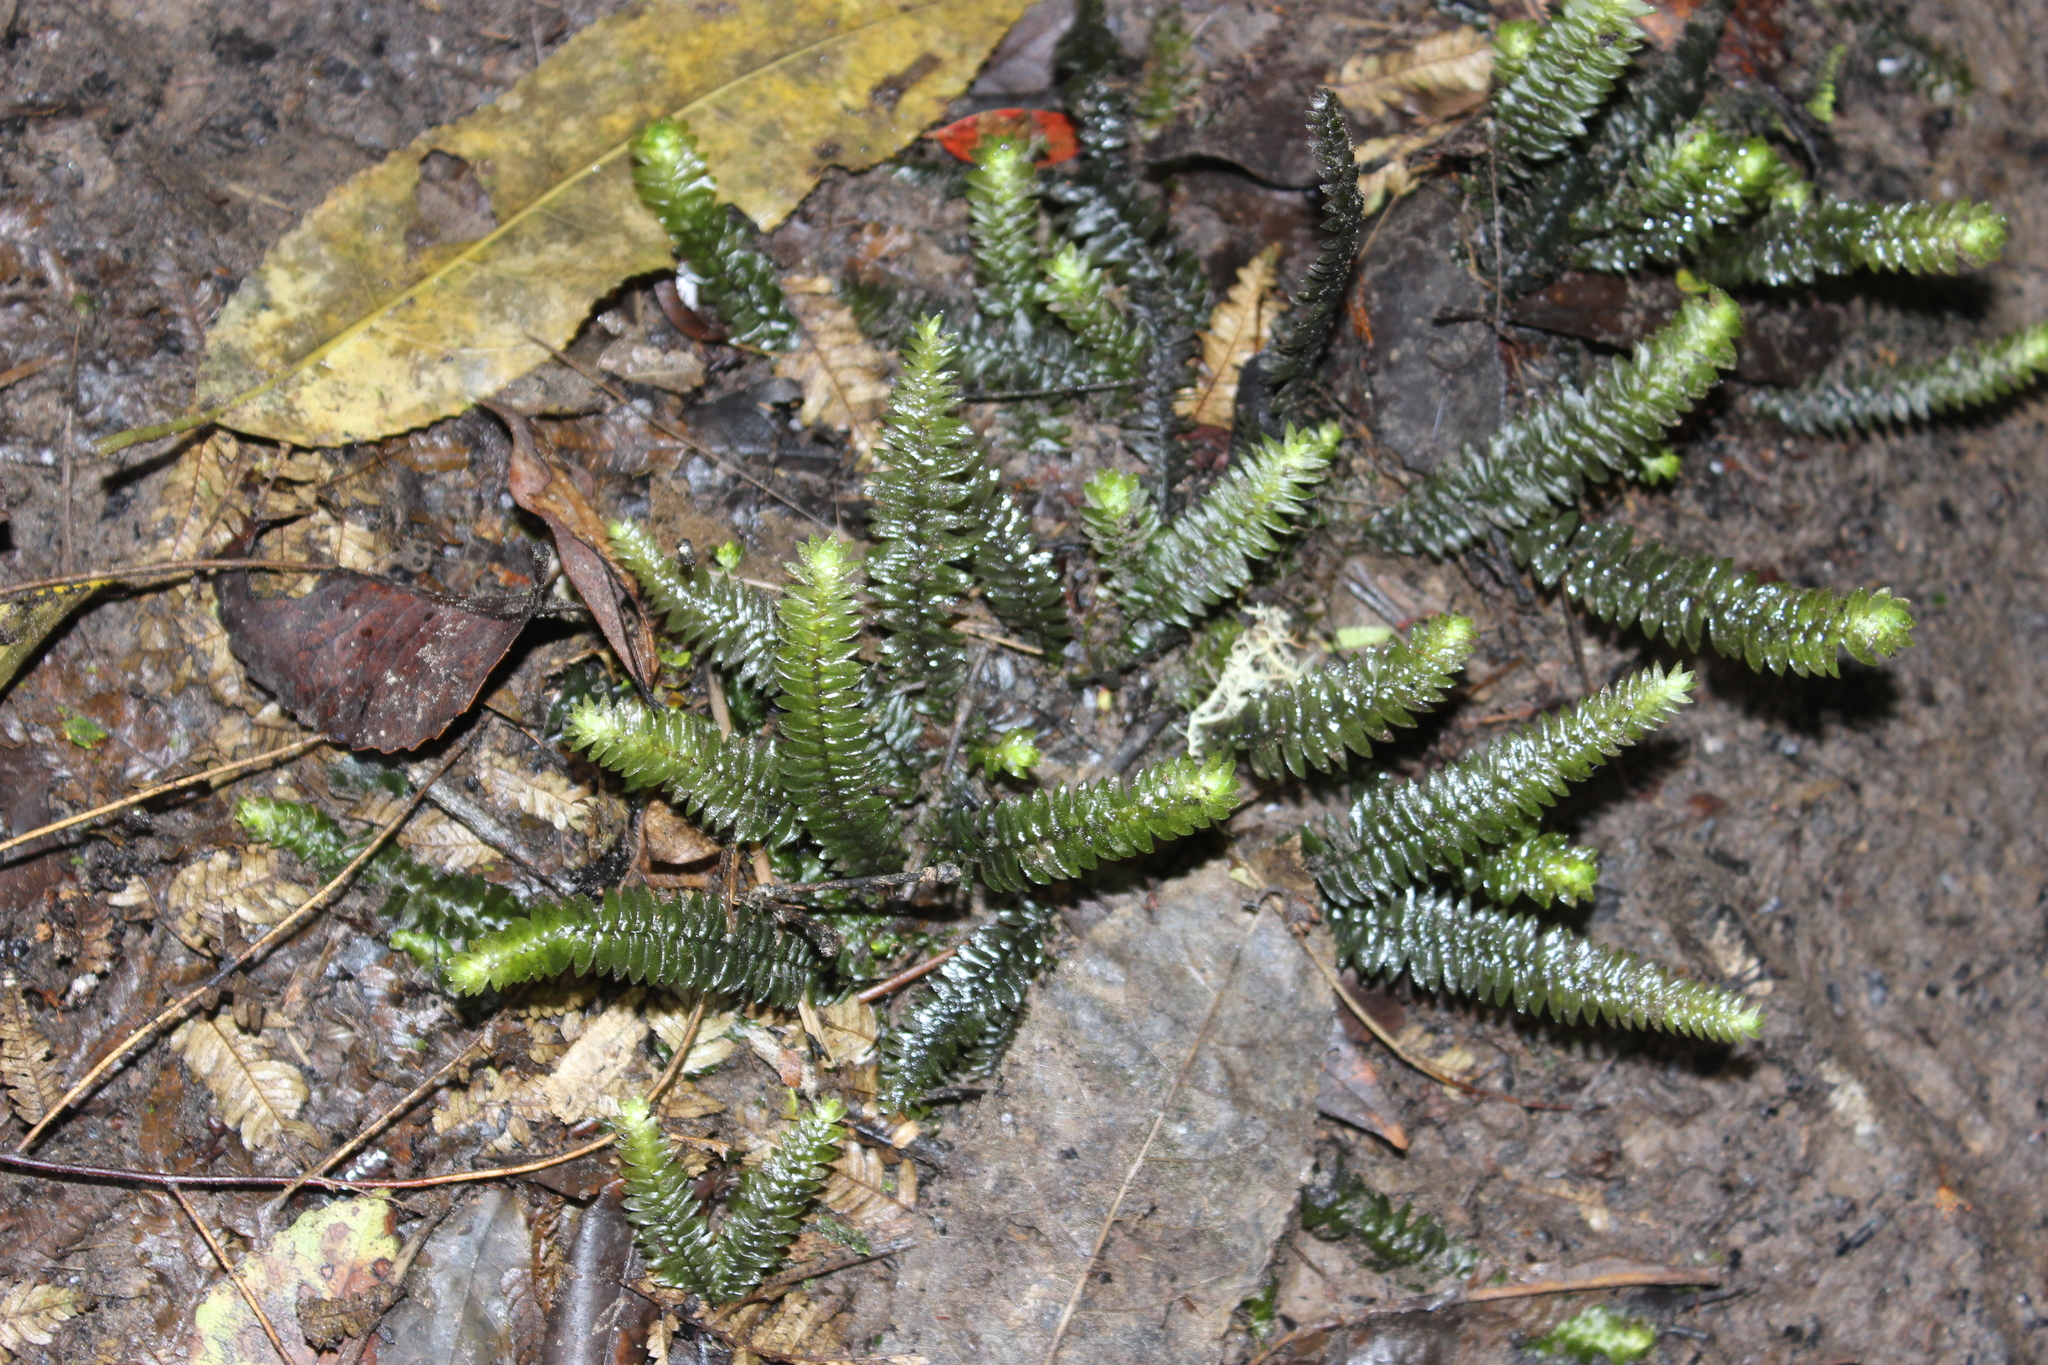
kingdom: Plantae
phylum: Bryophyta
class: Bryopsida
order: Hypopterygiales
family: Hypopterygiaceae
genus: Cyathophorum
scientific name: Cyathophorum bulbosum
